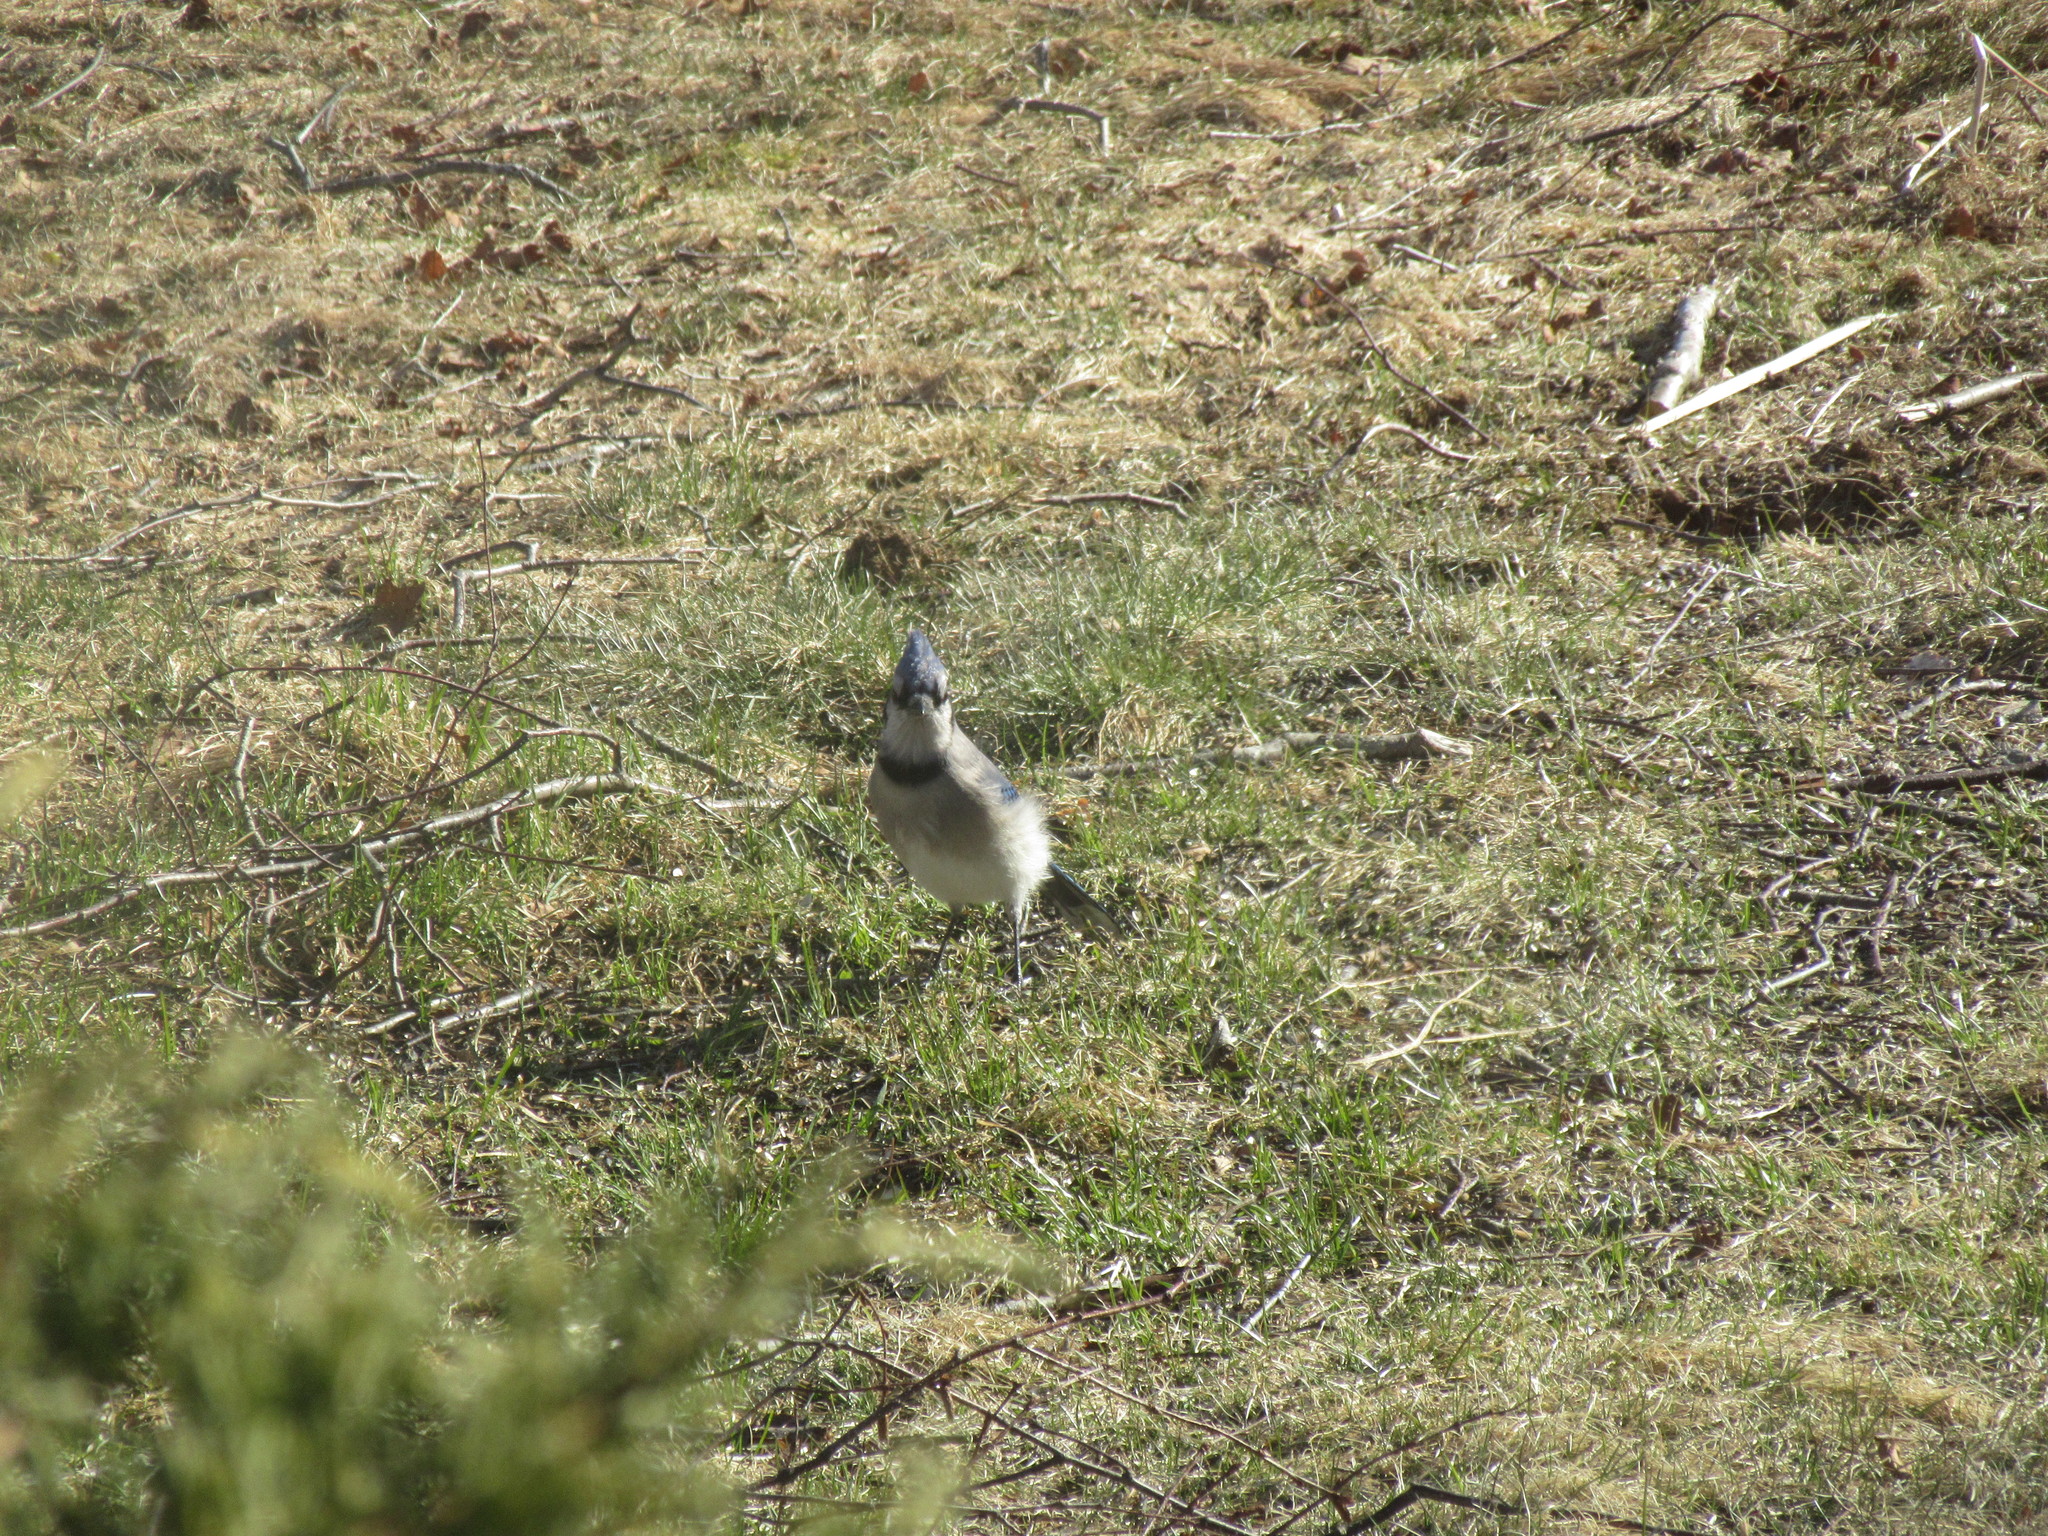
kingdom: Animalia
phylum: Chordata
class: Aves
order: Passeriformes
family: Corvidae
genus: Cyanocitta
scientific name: Cyanocitta cristata
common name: Blue jay
